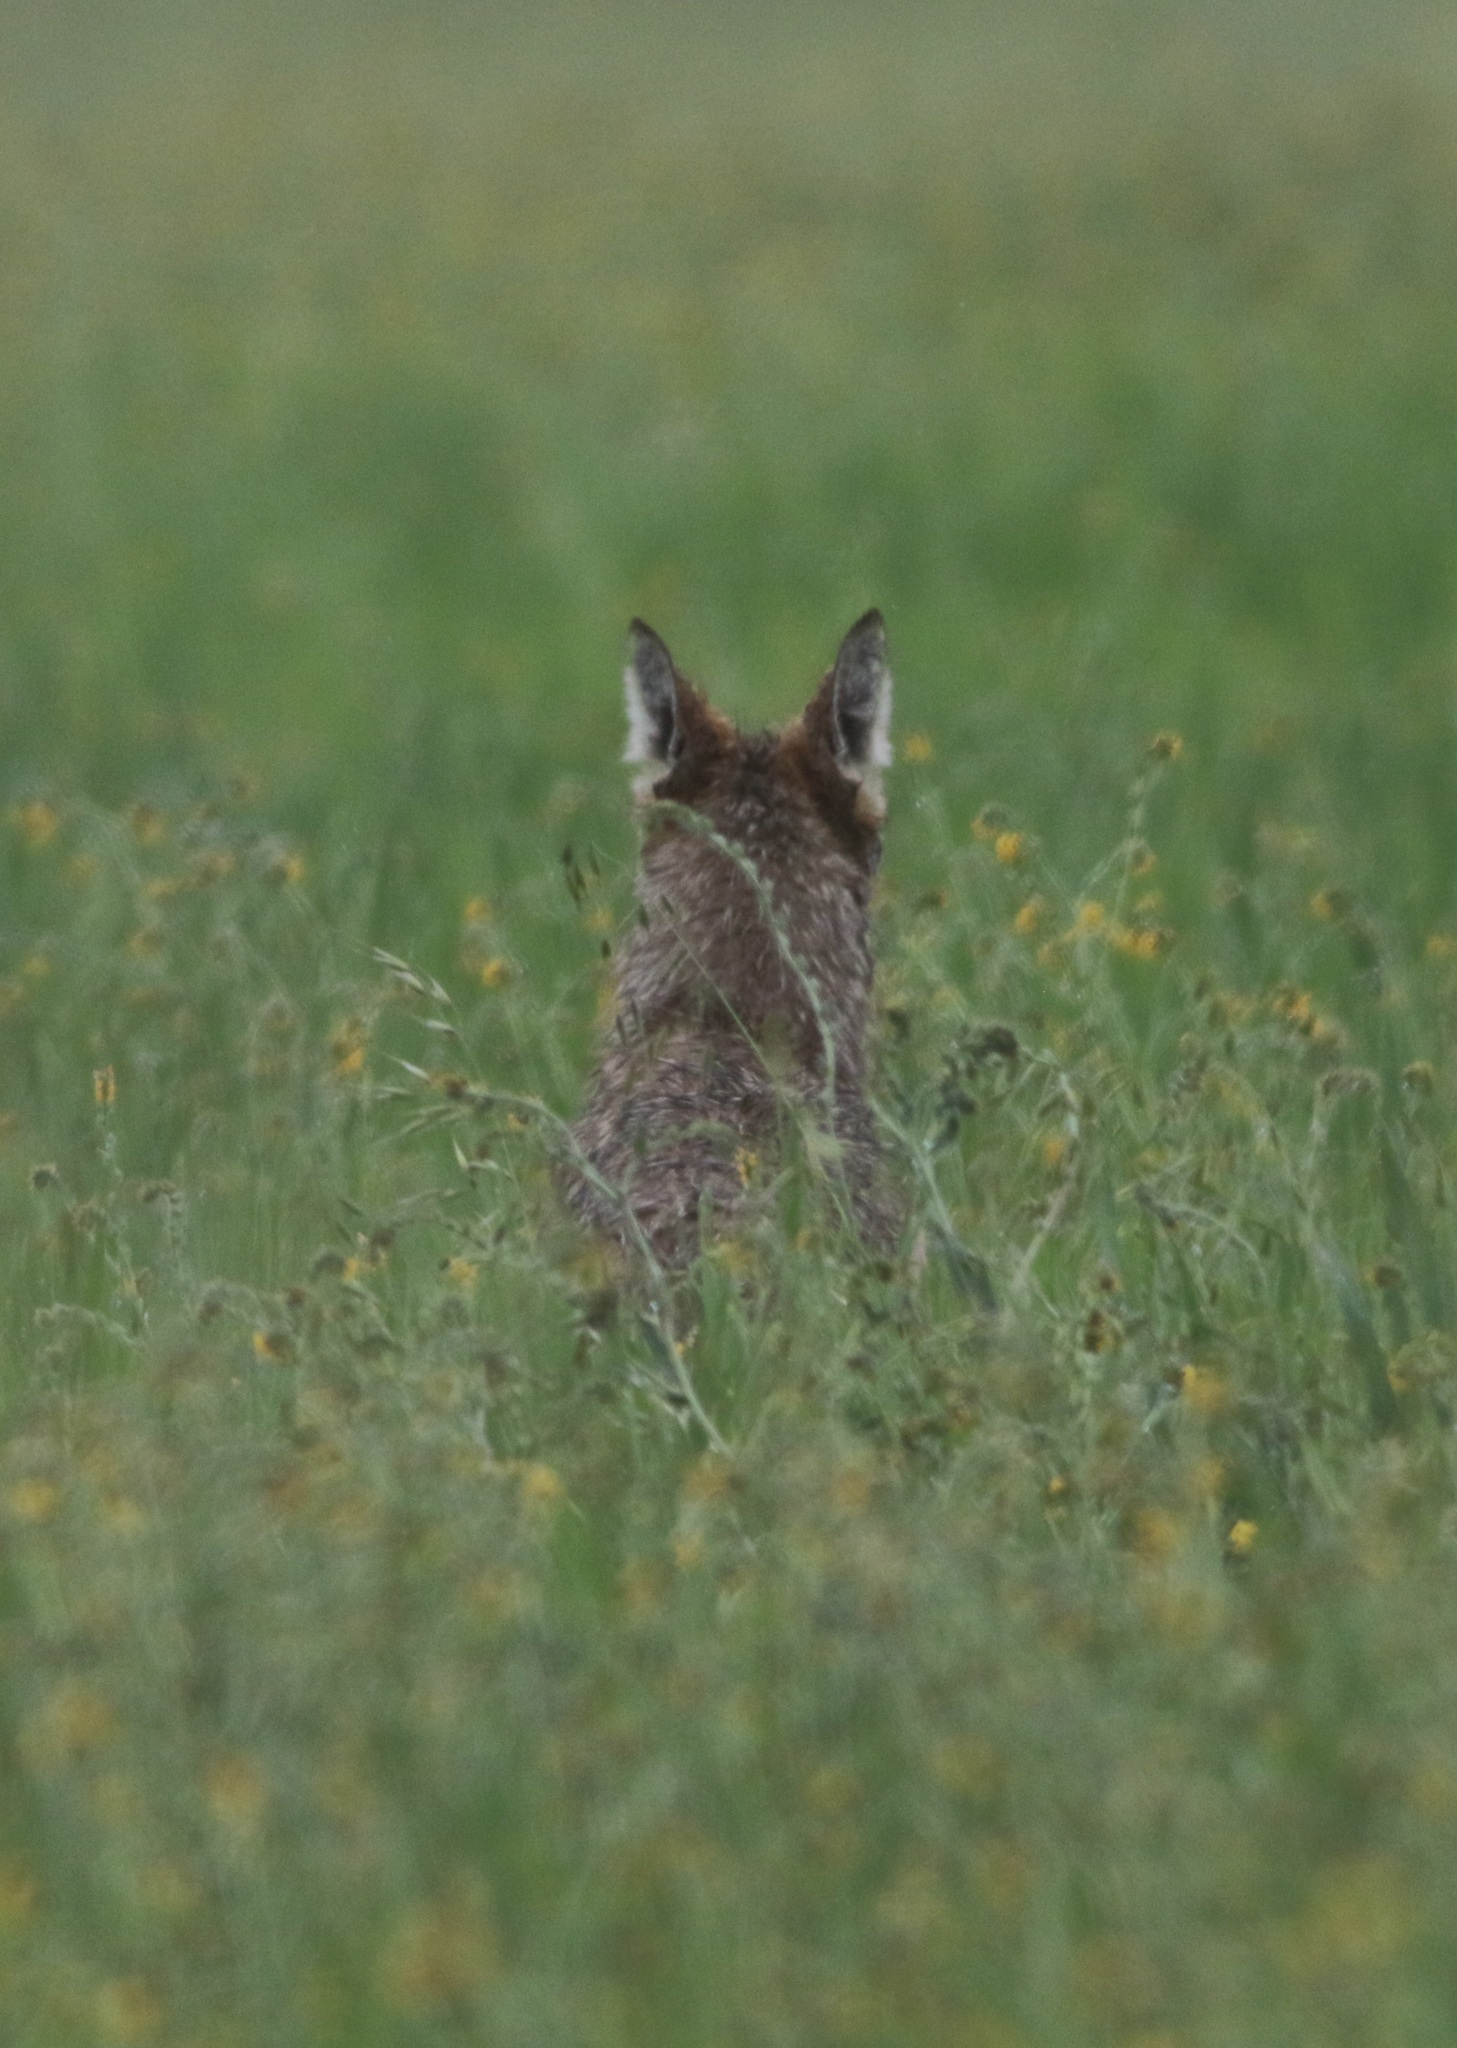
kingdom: Animalia
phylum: Chordata
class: Mammalia
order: Carnivora
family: Canidae
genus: Canis
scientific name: Canis latrans
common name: Coyote
